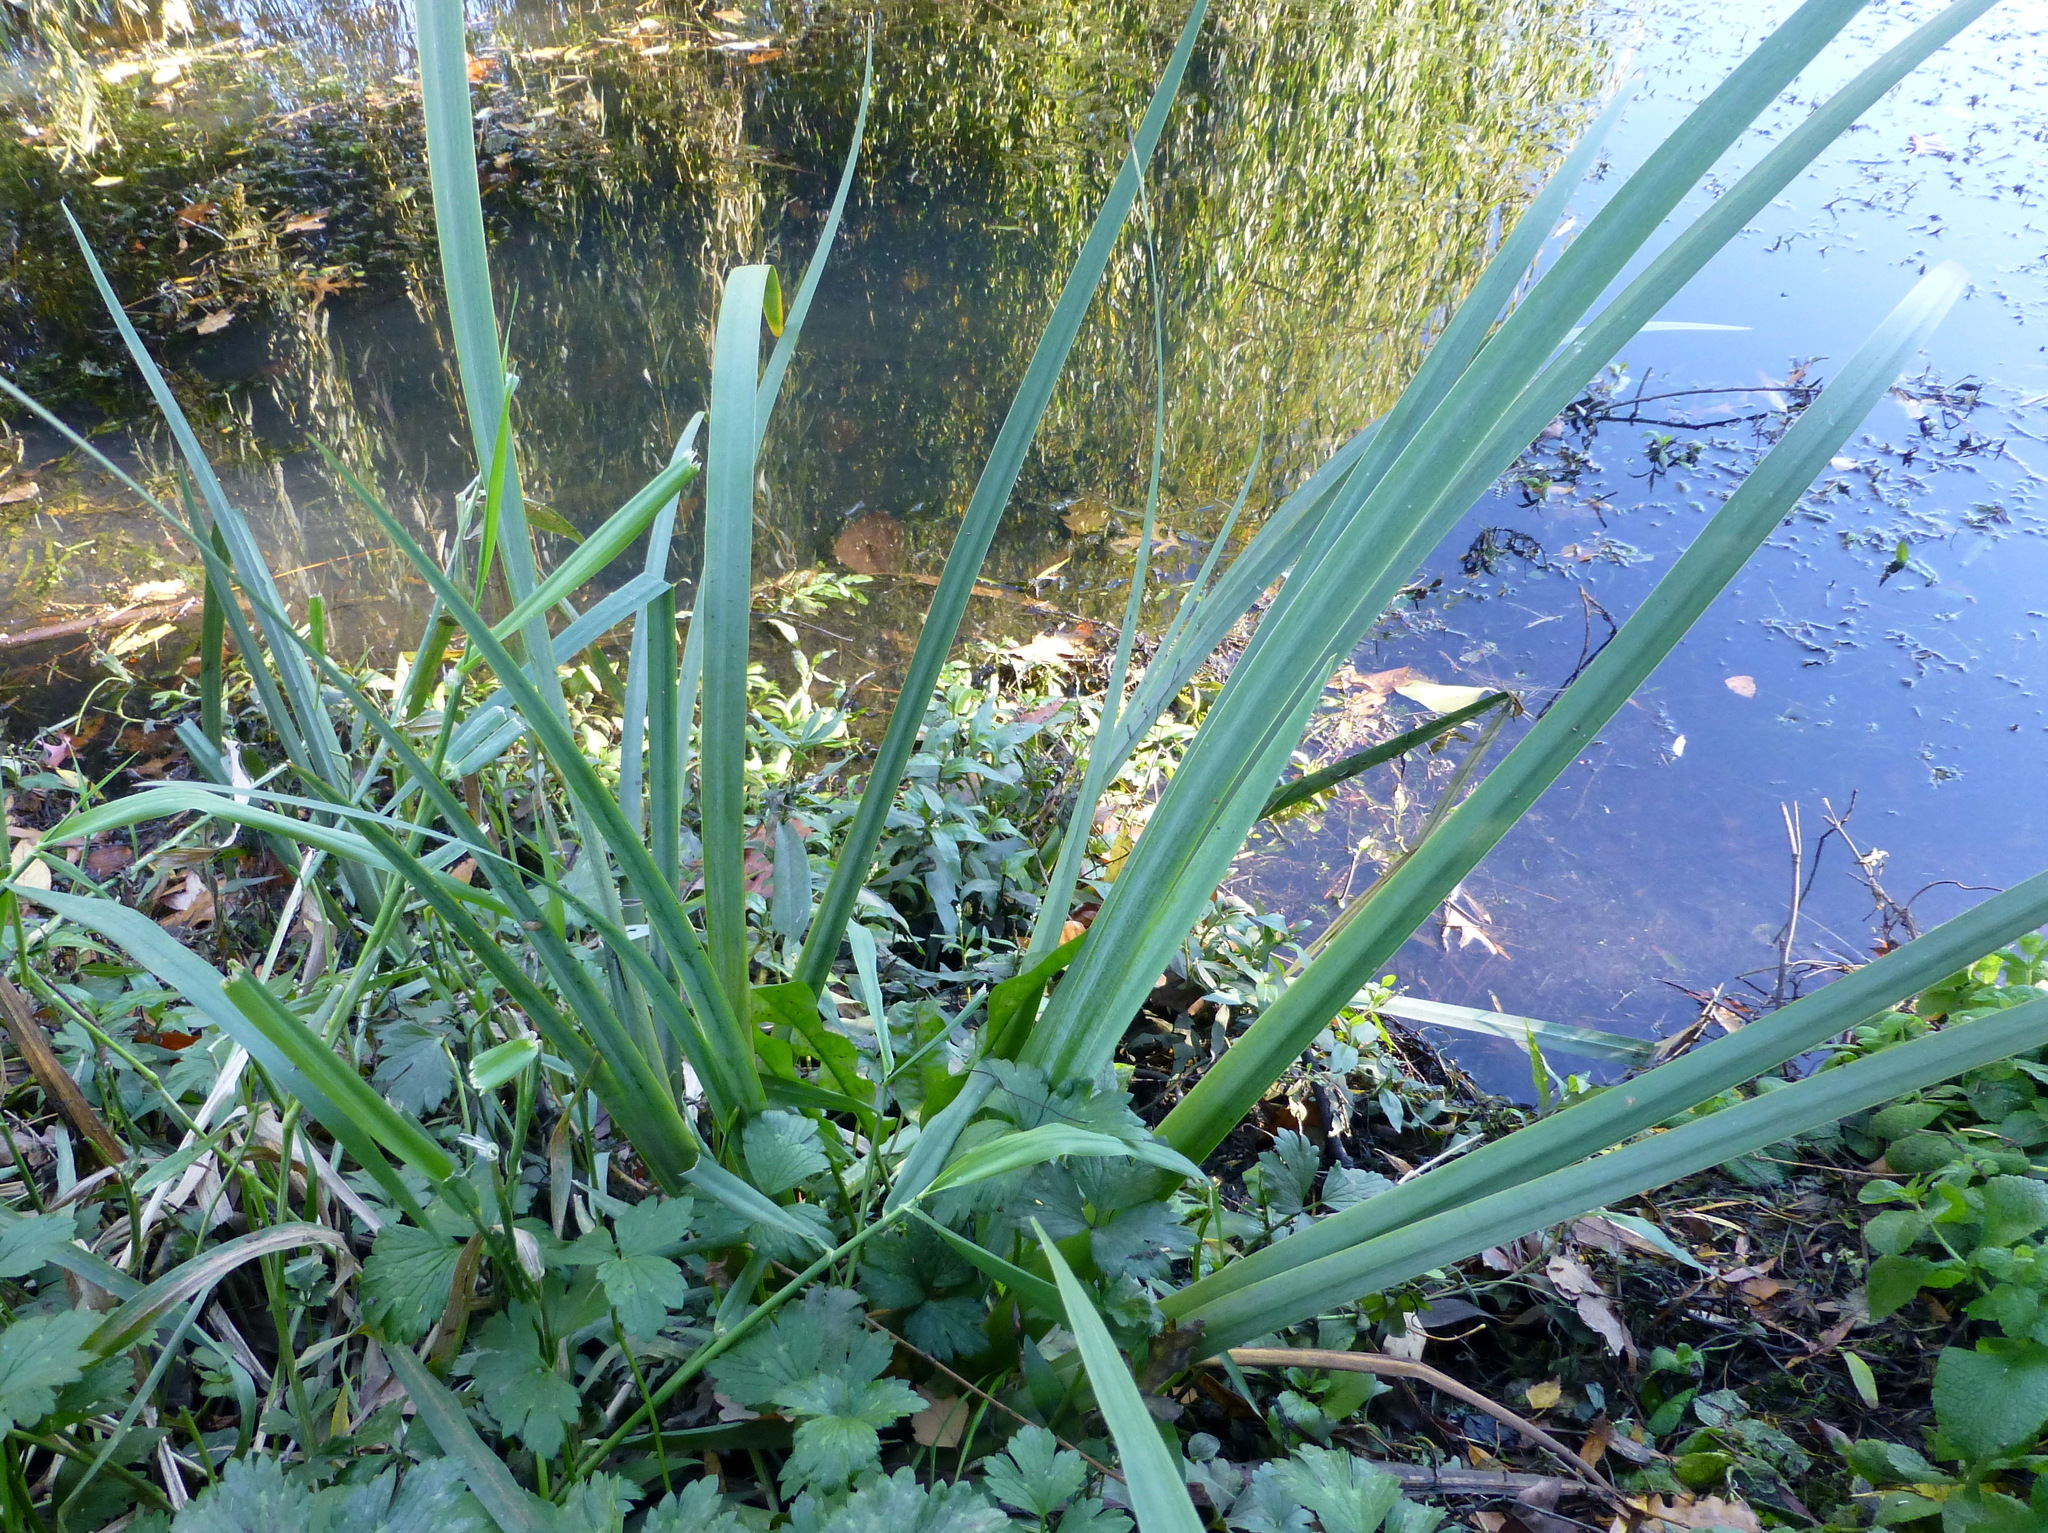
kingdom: Plantae
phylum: Tracheophyta
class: Liliopsida
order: Asparagales
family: Iridaceae
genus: Iris
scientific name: Iris pseudacorus
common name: Yellow flag
